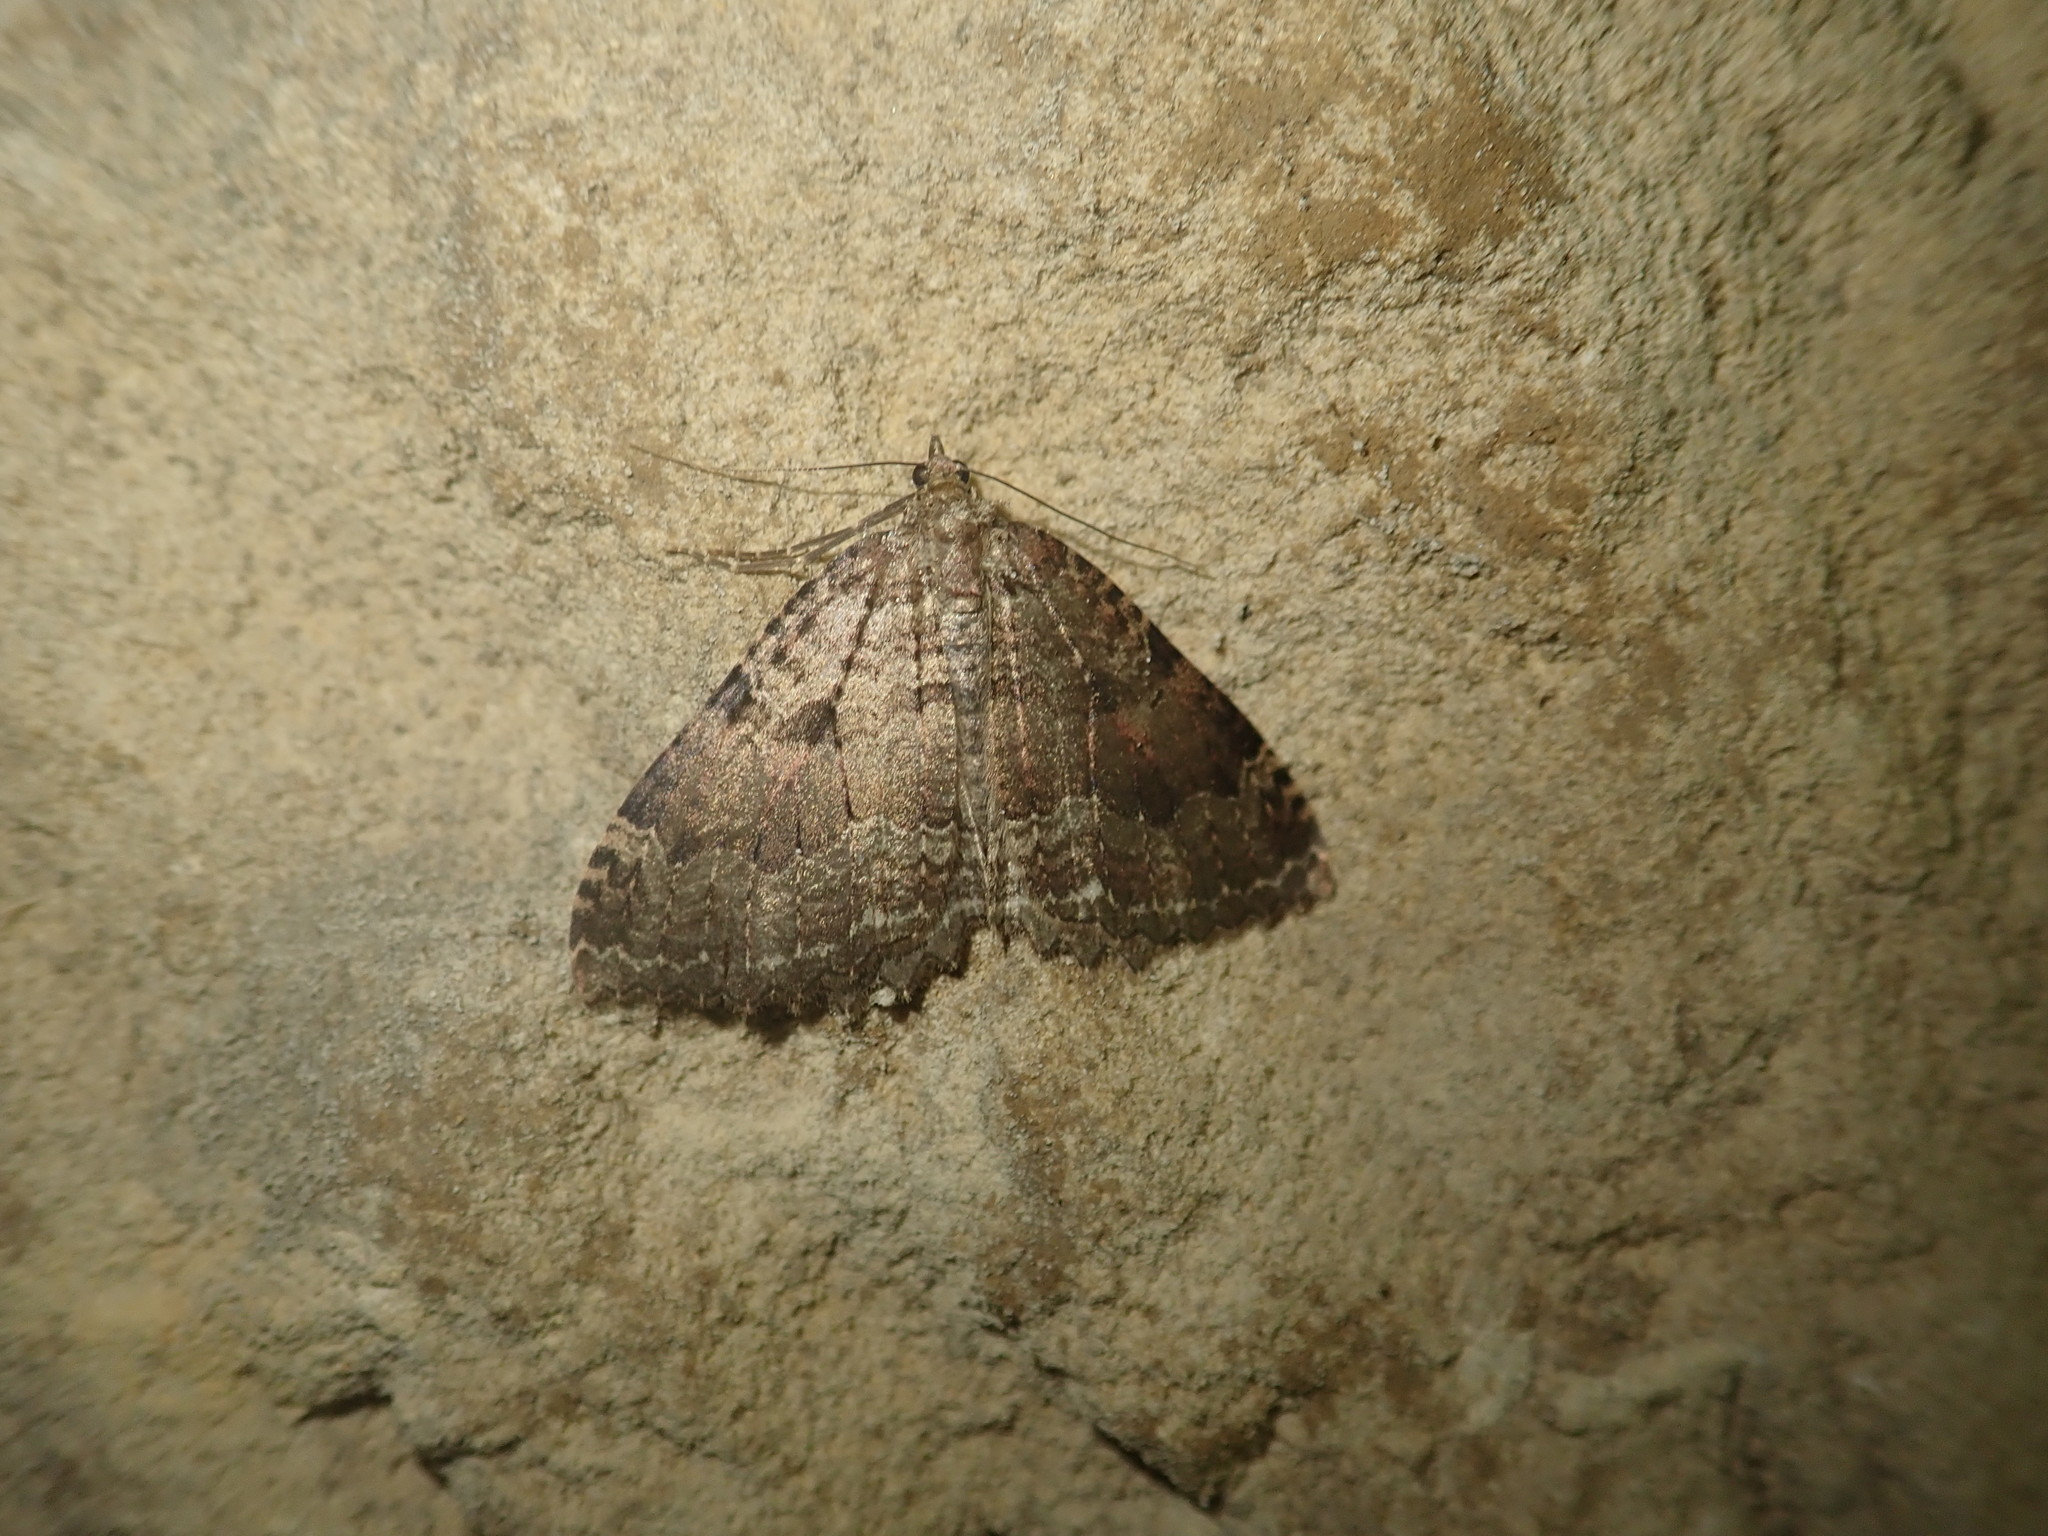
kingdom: Animalia
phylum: Arthropoda
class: Insecta
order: Lepidoptera
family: Geometridae
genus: Triphosa
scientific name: Triphosa dubitata
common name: Tissue
